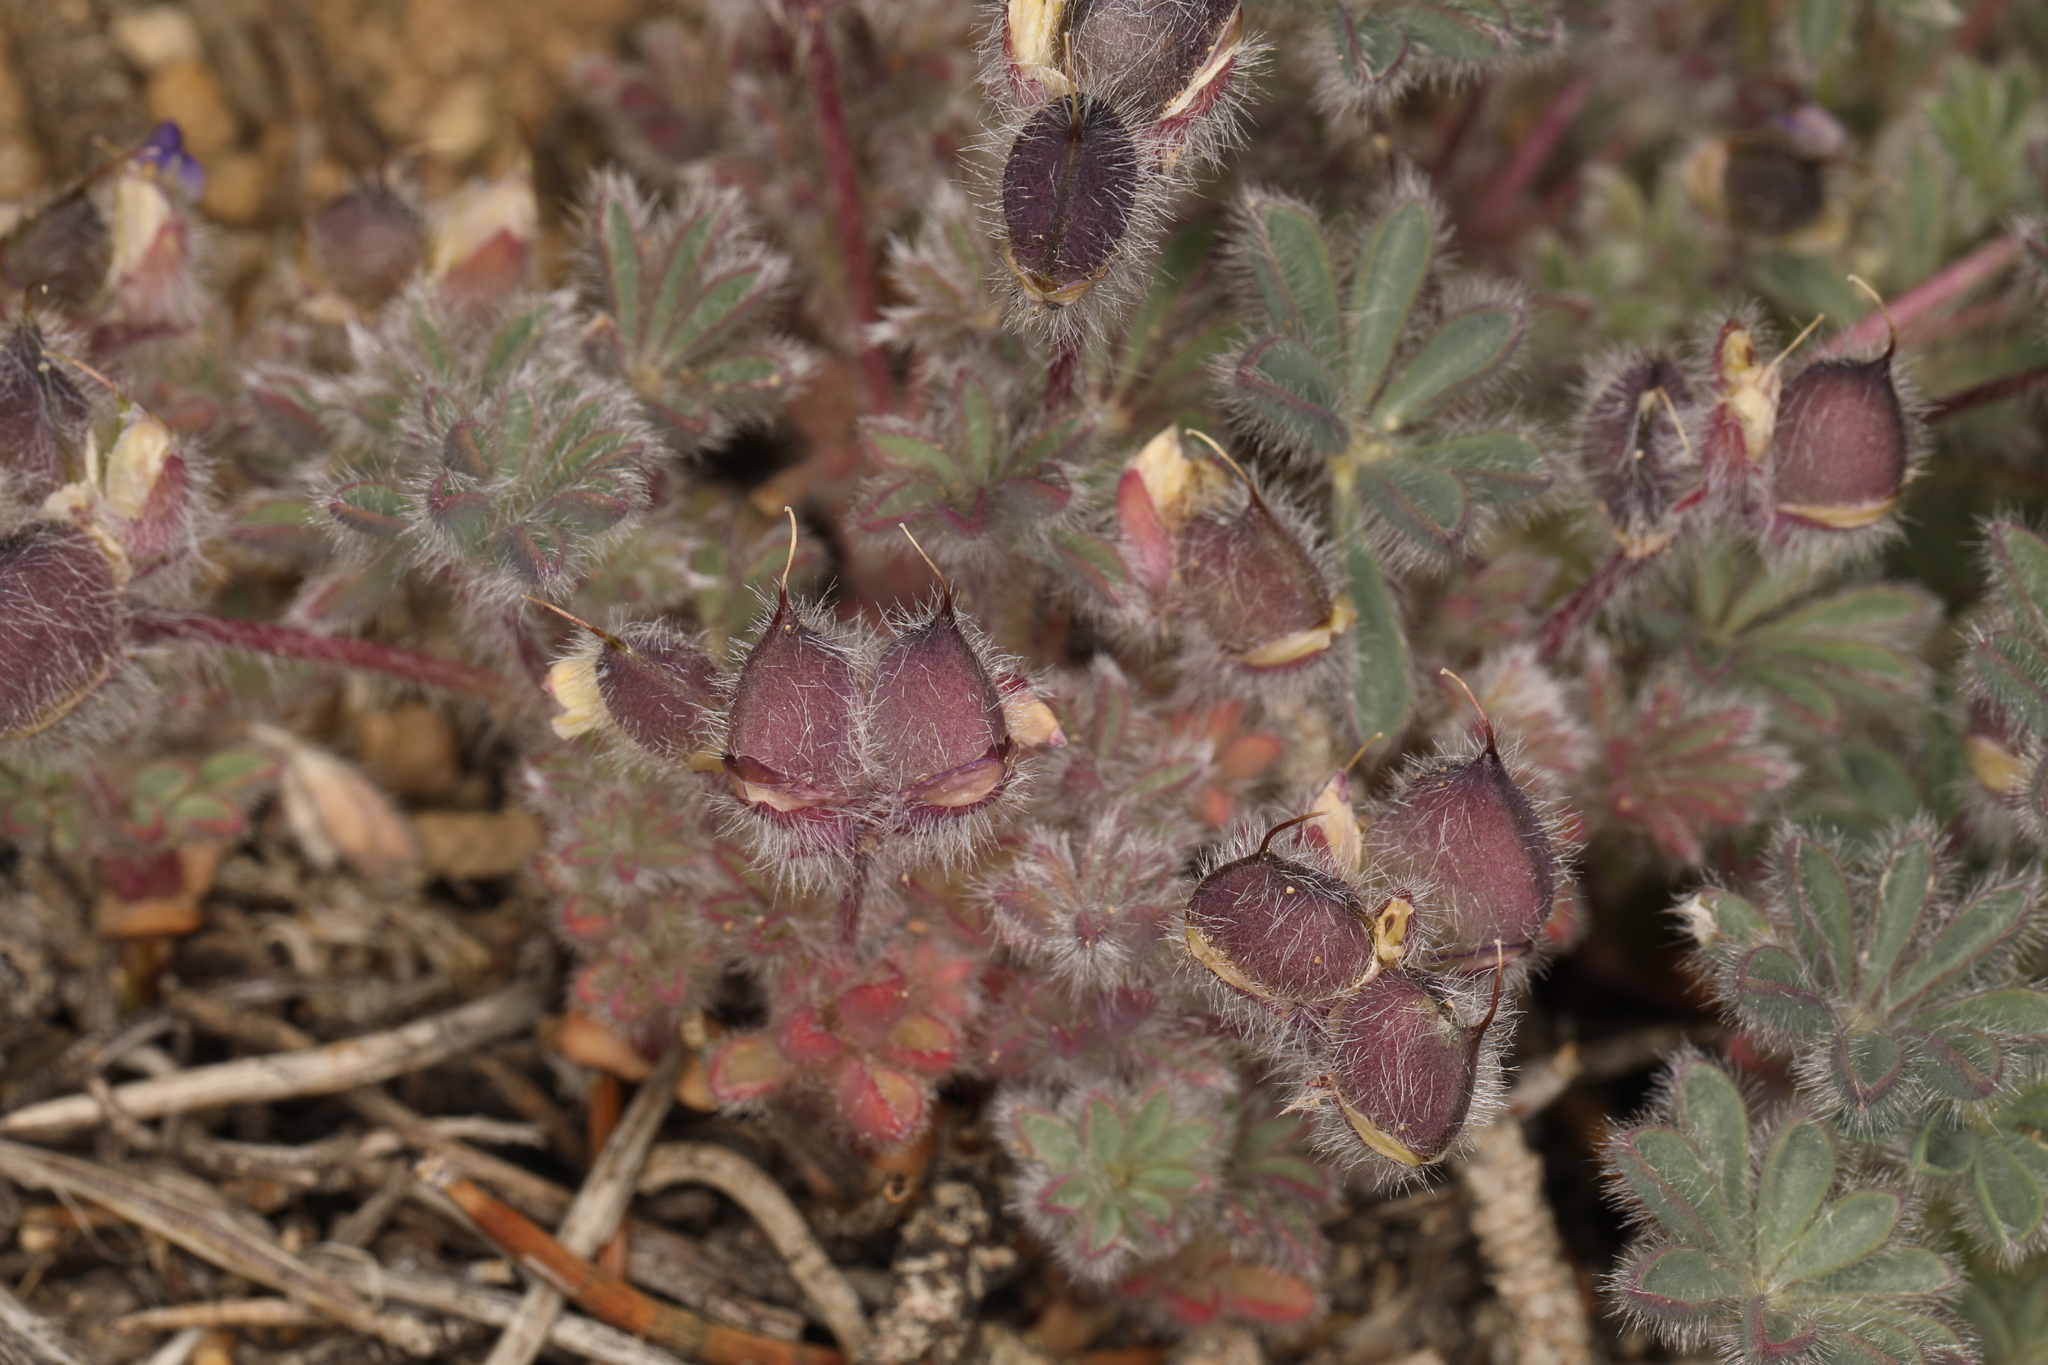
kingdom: Plantae
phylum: Tracheophyta
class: Magnoliopsida
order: Fabales
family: Fabaceae
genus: Lupinus
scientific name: Lupinus brevicaulis
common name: Sand lupine
